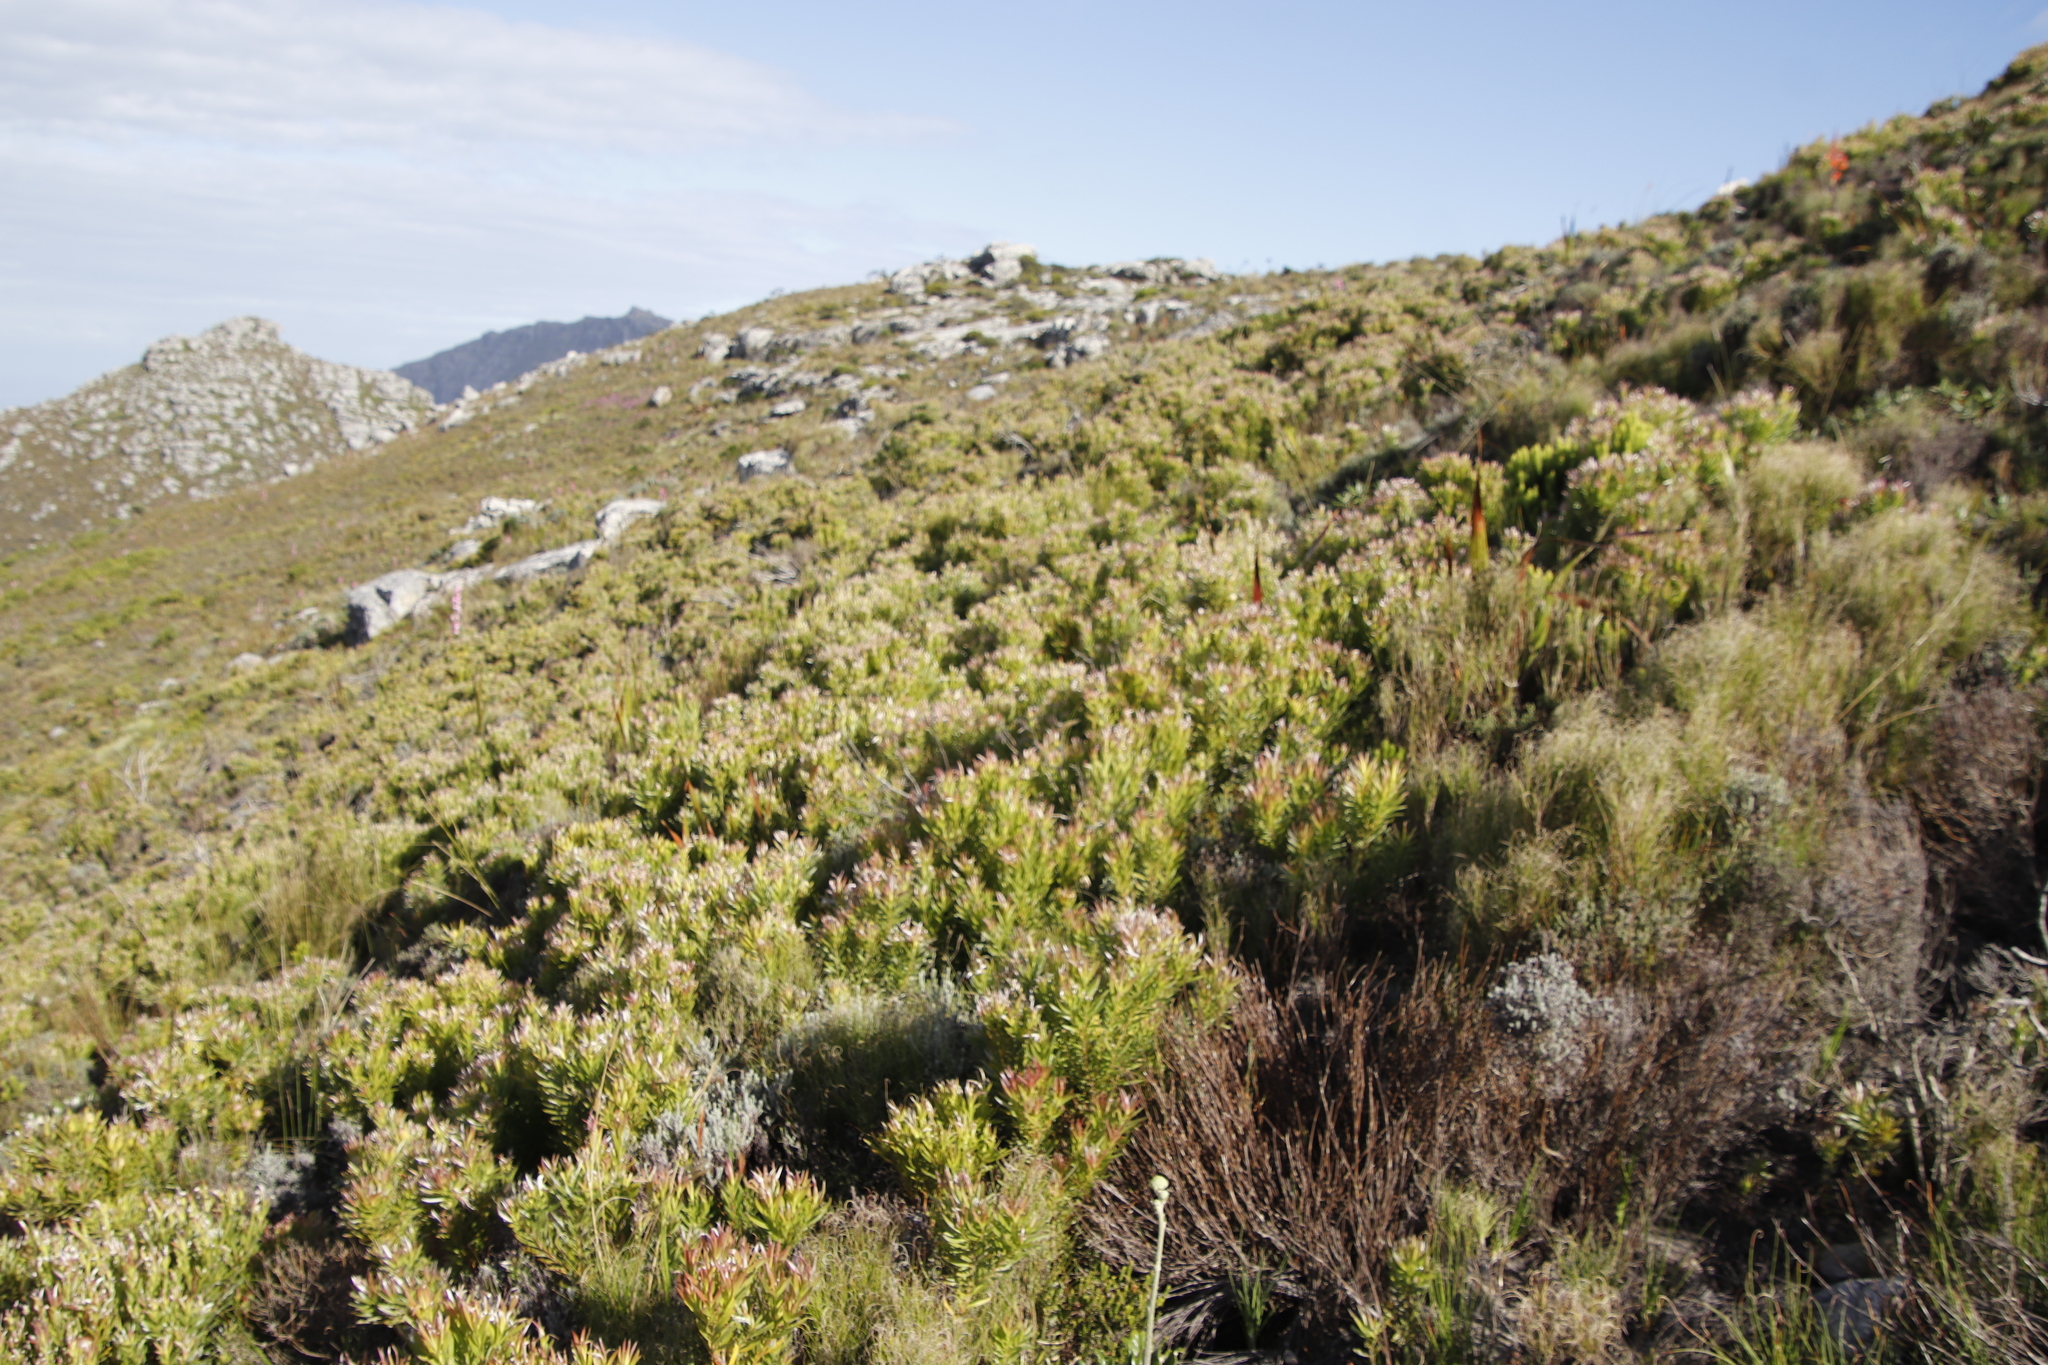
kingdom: Plantae
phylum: Tracheophyta
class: Magnoliopsida
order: Proteales
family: Proteaceae
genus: Leucadendron
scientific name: Leucadendron xanthoconus
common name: Sickle-leaf conebush
